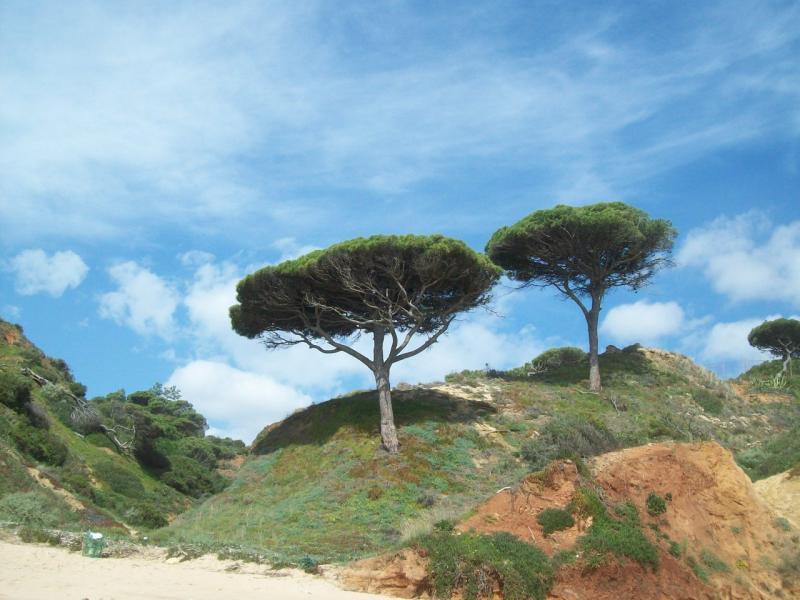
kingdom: Plantae
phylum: Tracheophyta
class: Pinopsida
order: Pinales
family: Pinaceae
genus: Pinus
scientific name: Pinus pinea
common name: Italian stone pine
